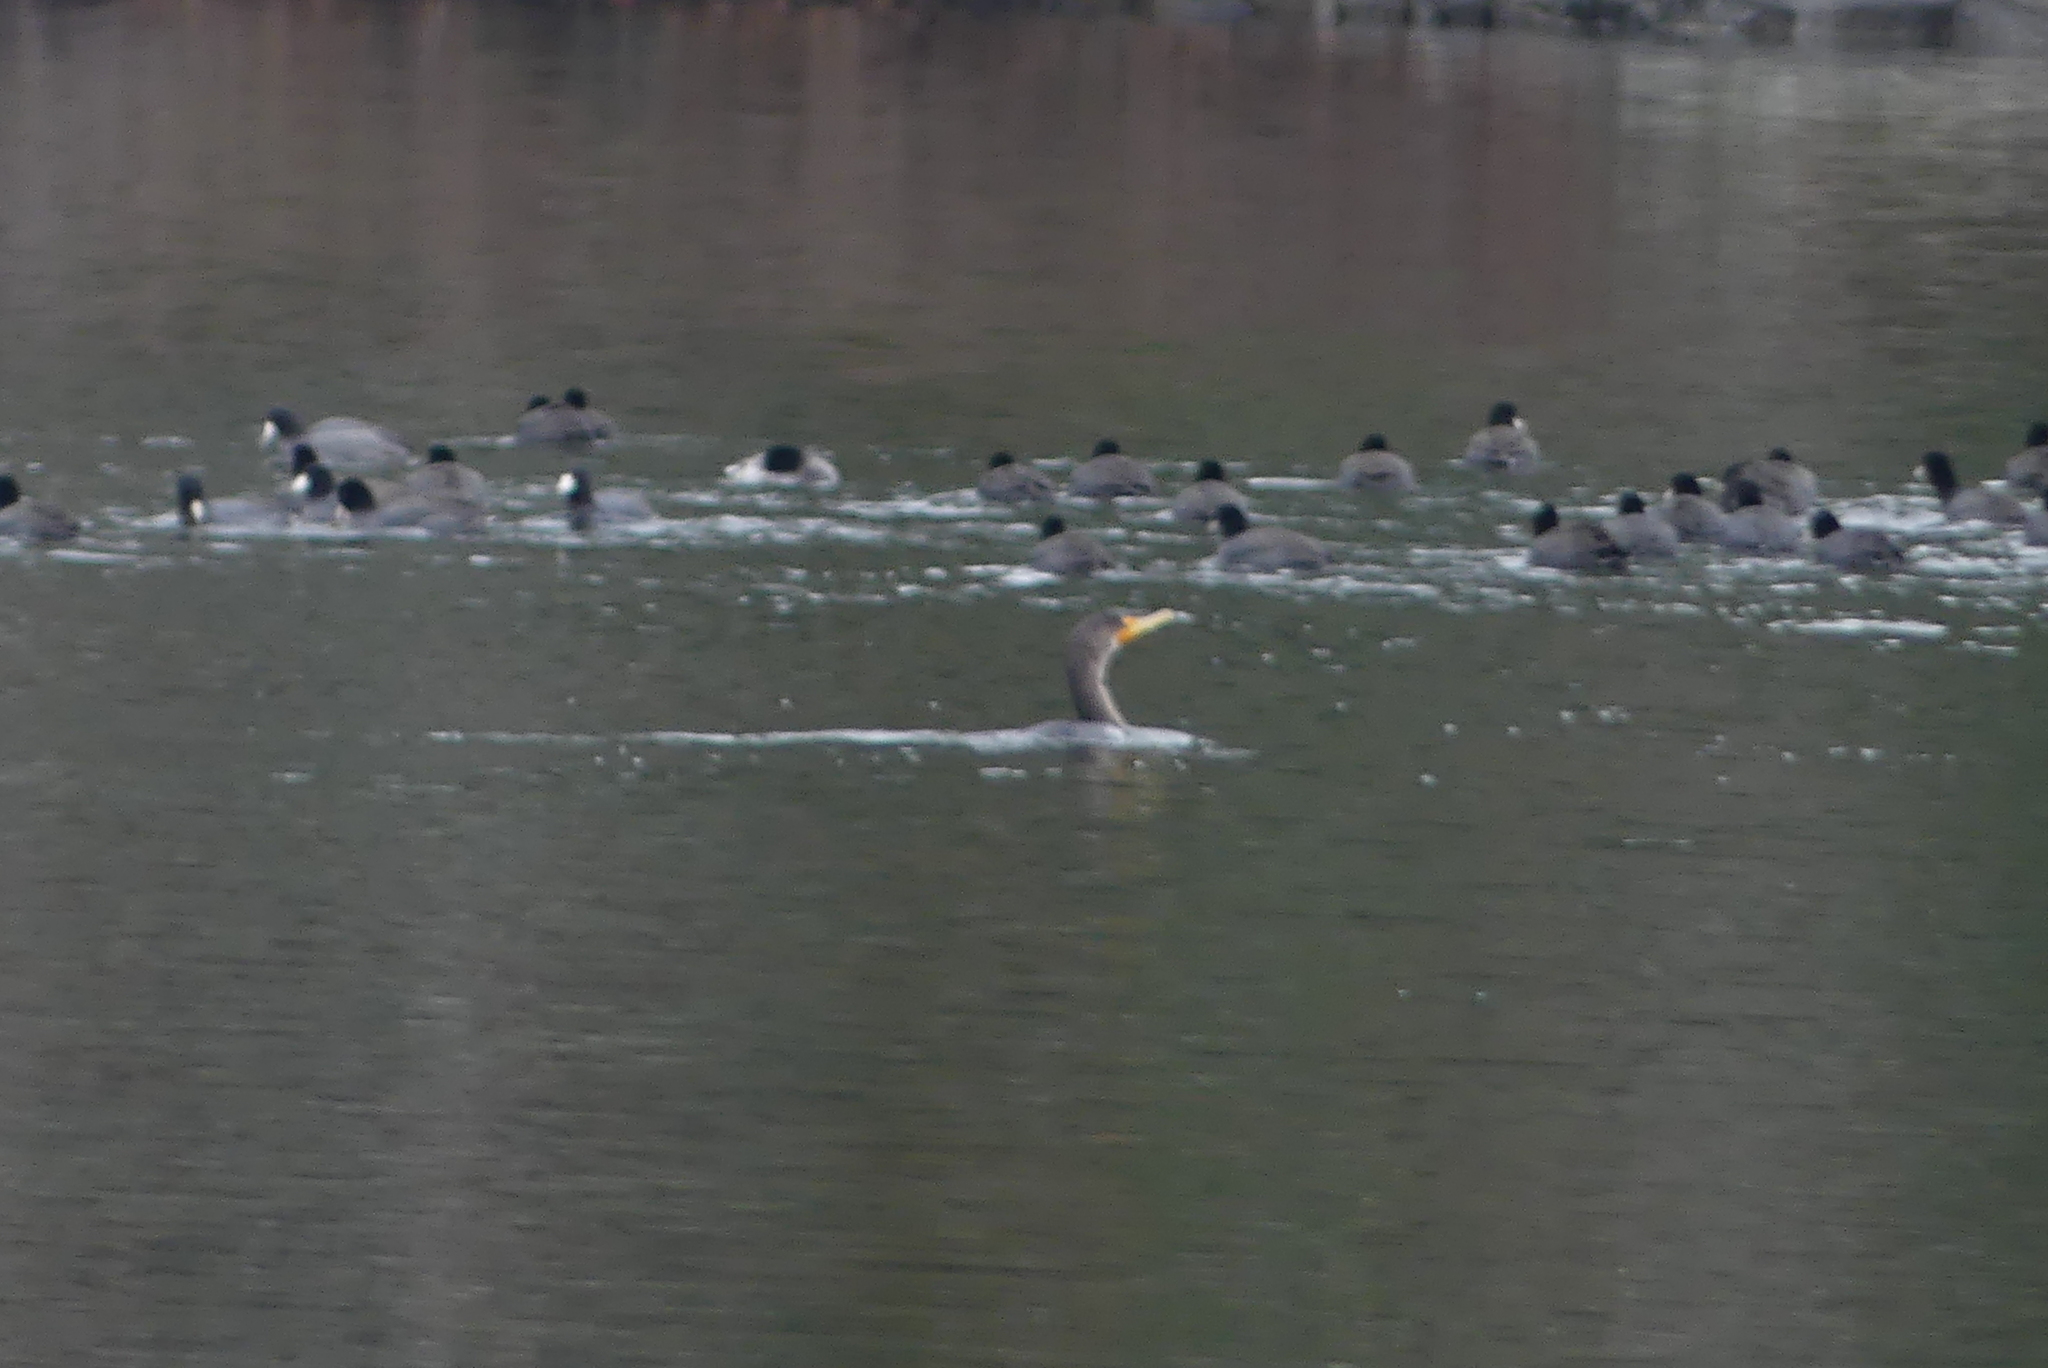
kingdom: Animalia
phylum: Chordata
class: Aves
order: Suliformes
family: Phalacrocoracidae
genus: Phalacrocorax
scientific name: Phalacrocorax auritus
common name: Double-crested cormorant
